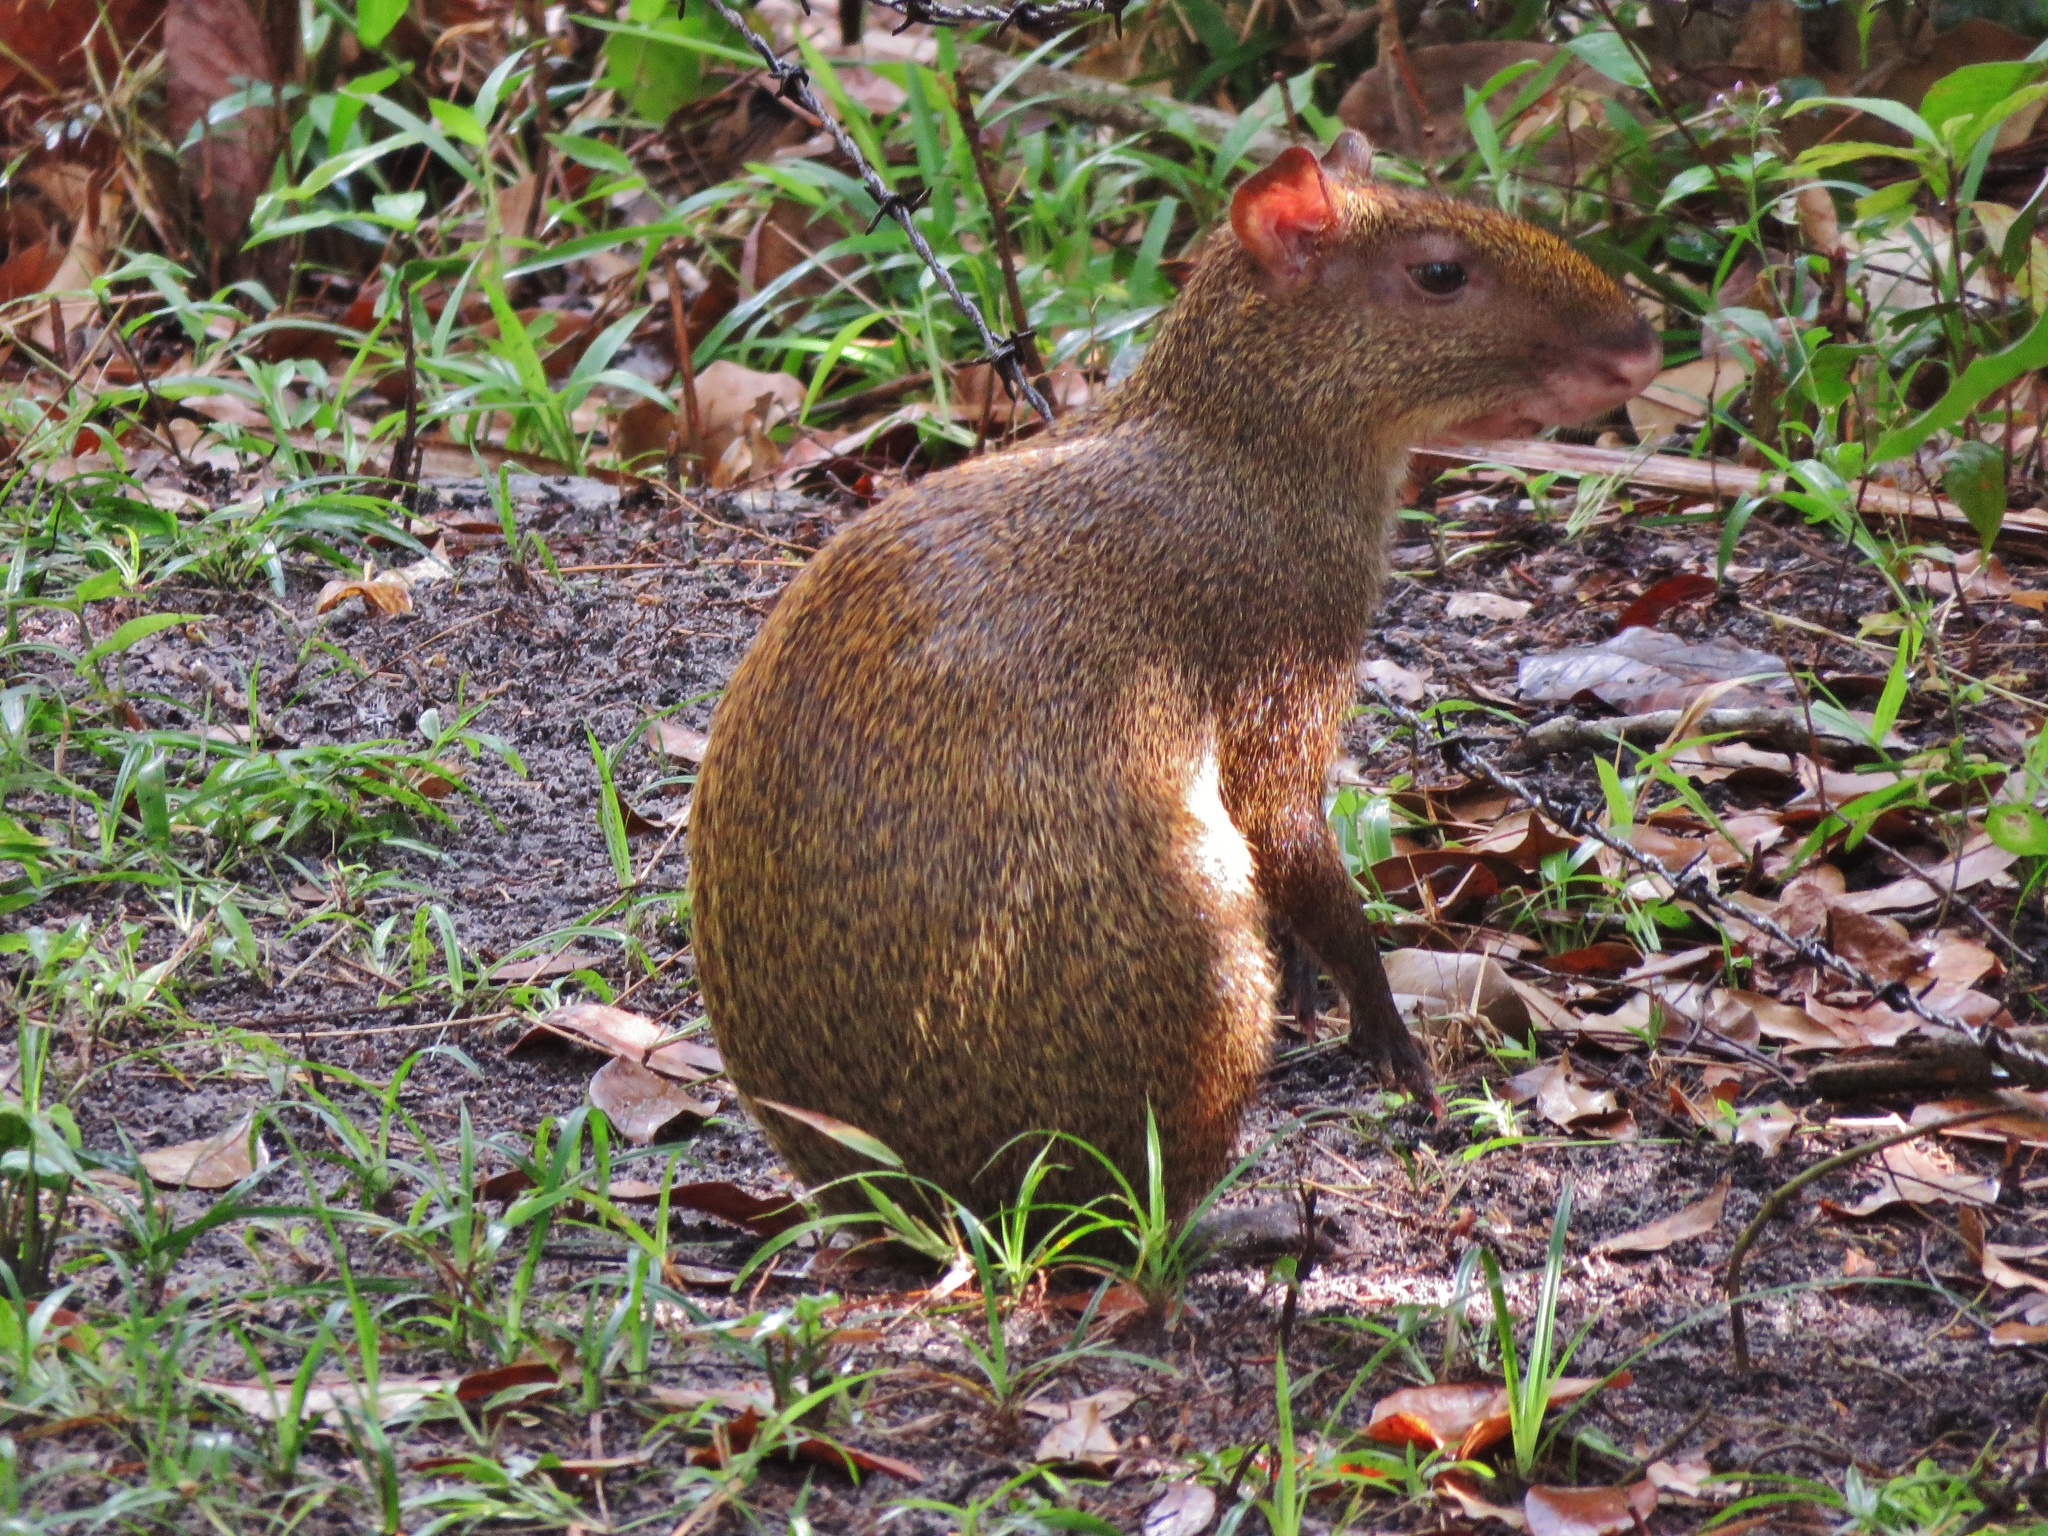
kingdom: Animalia
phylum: Chordata
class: Mammalia
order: Rodentia
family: Dasyproctidae
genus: Dasyprocta
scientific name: Dasyprocta punctata
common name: Central american agouti
